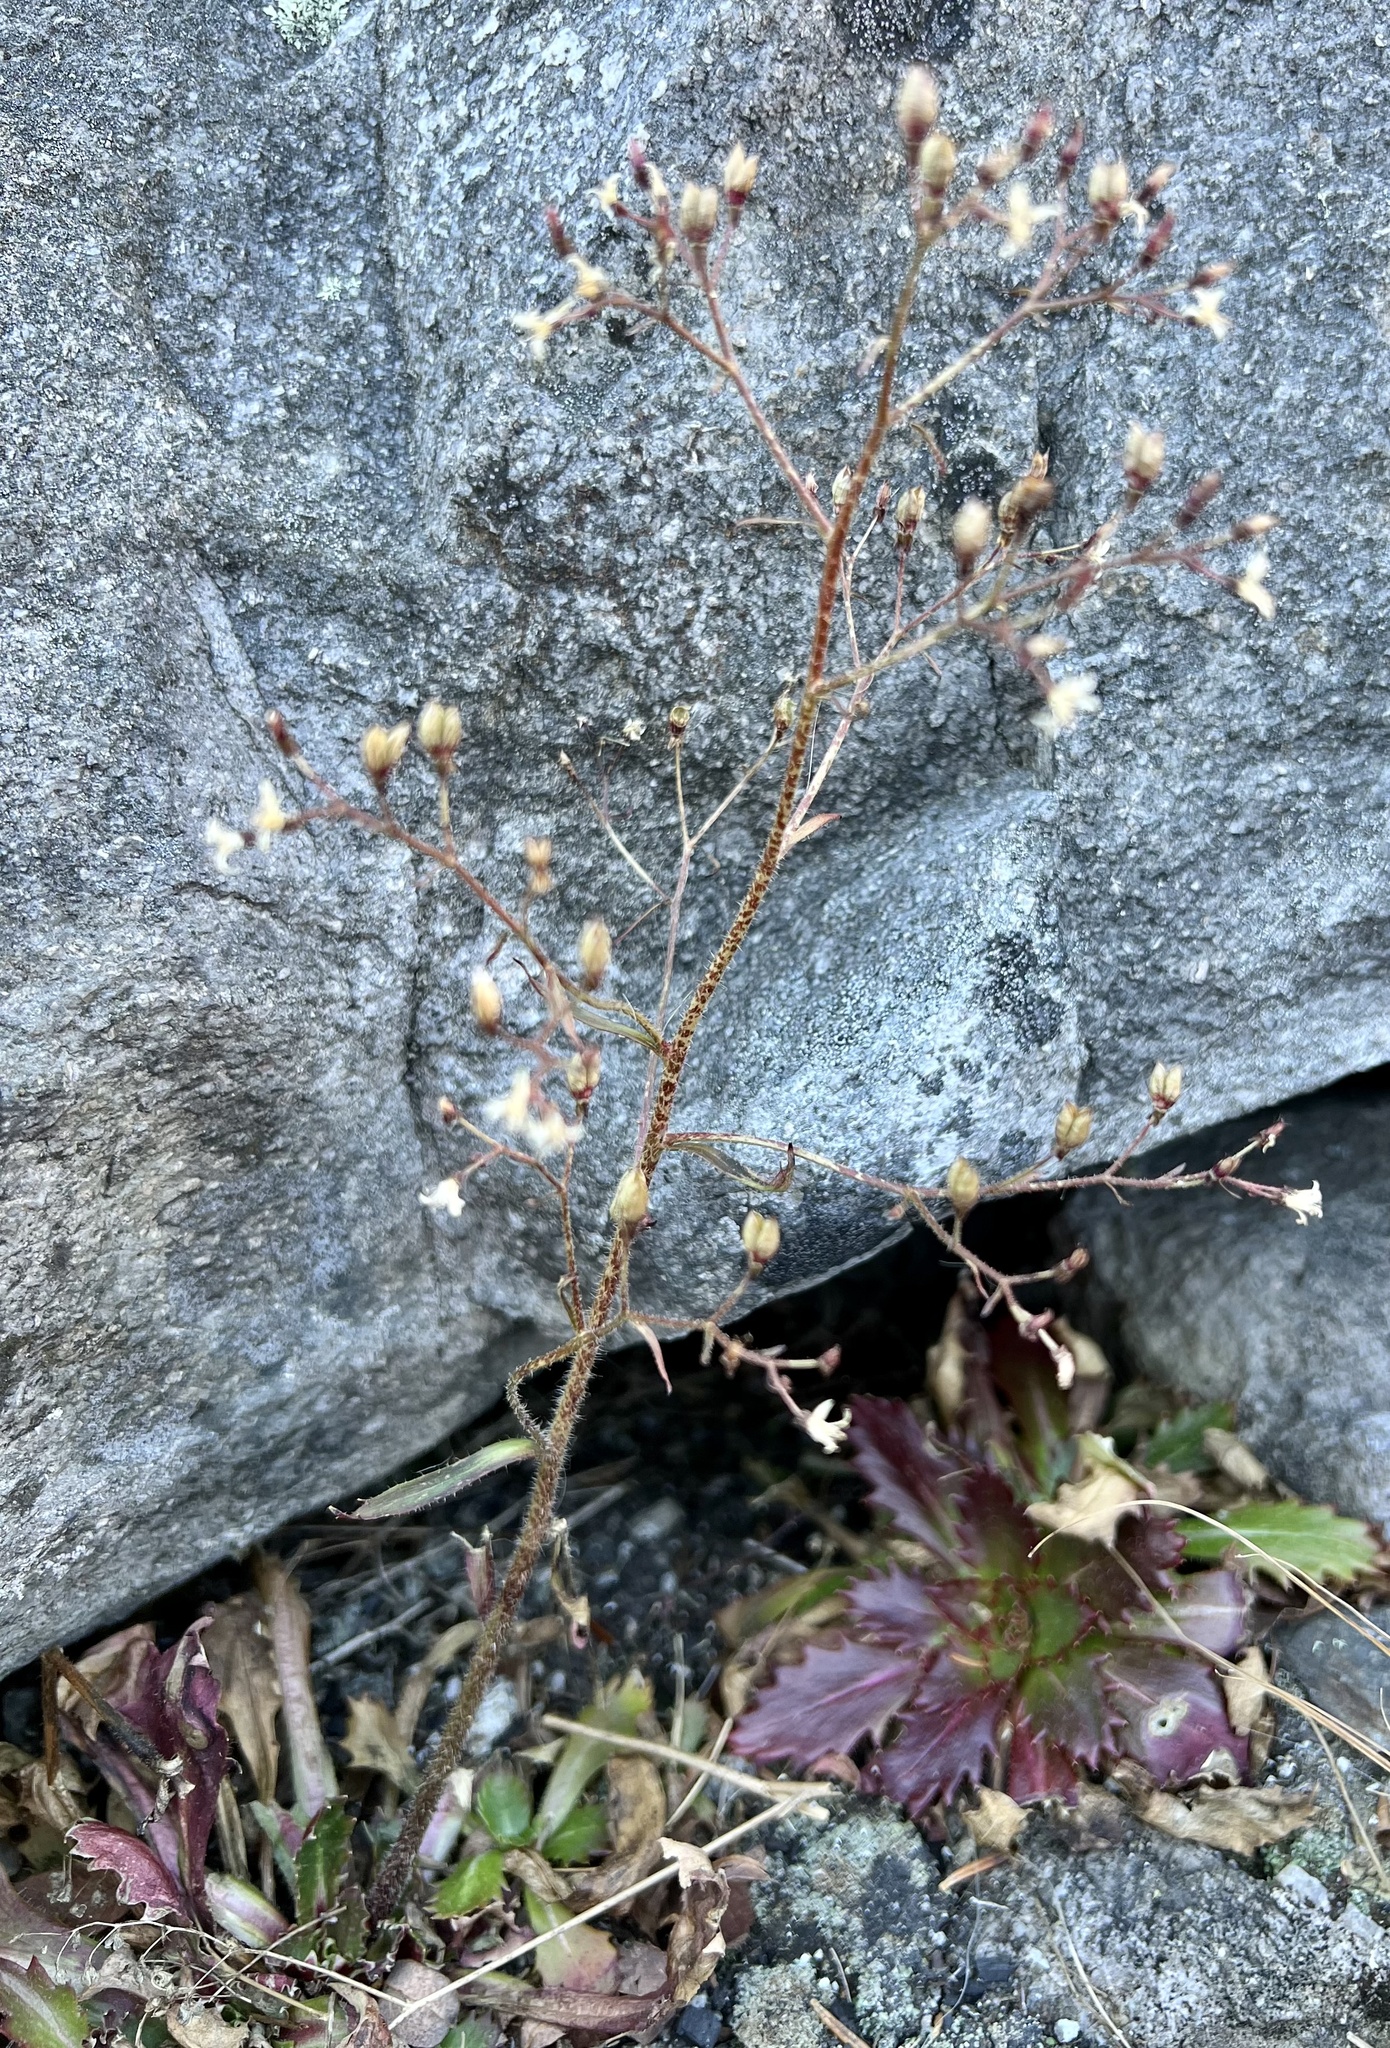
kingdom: Plantae
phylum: Tracheophyta
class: Magnoliopsida
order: Saxifragales
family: Saxifragaceae
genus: Micranthes
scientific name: Micranthes petiolaris
